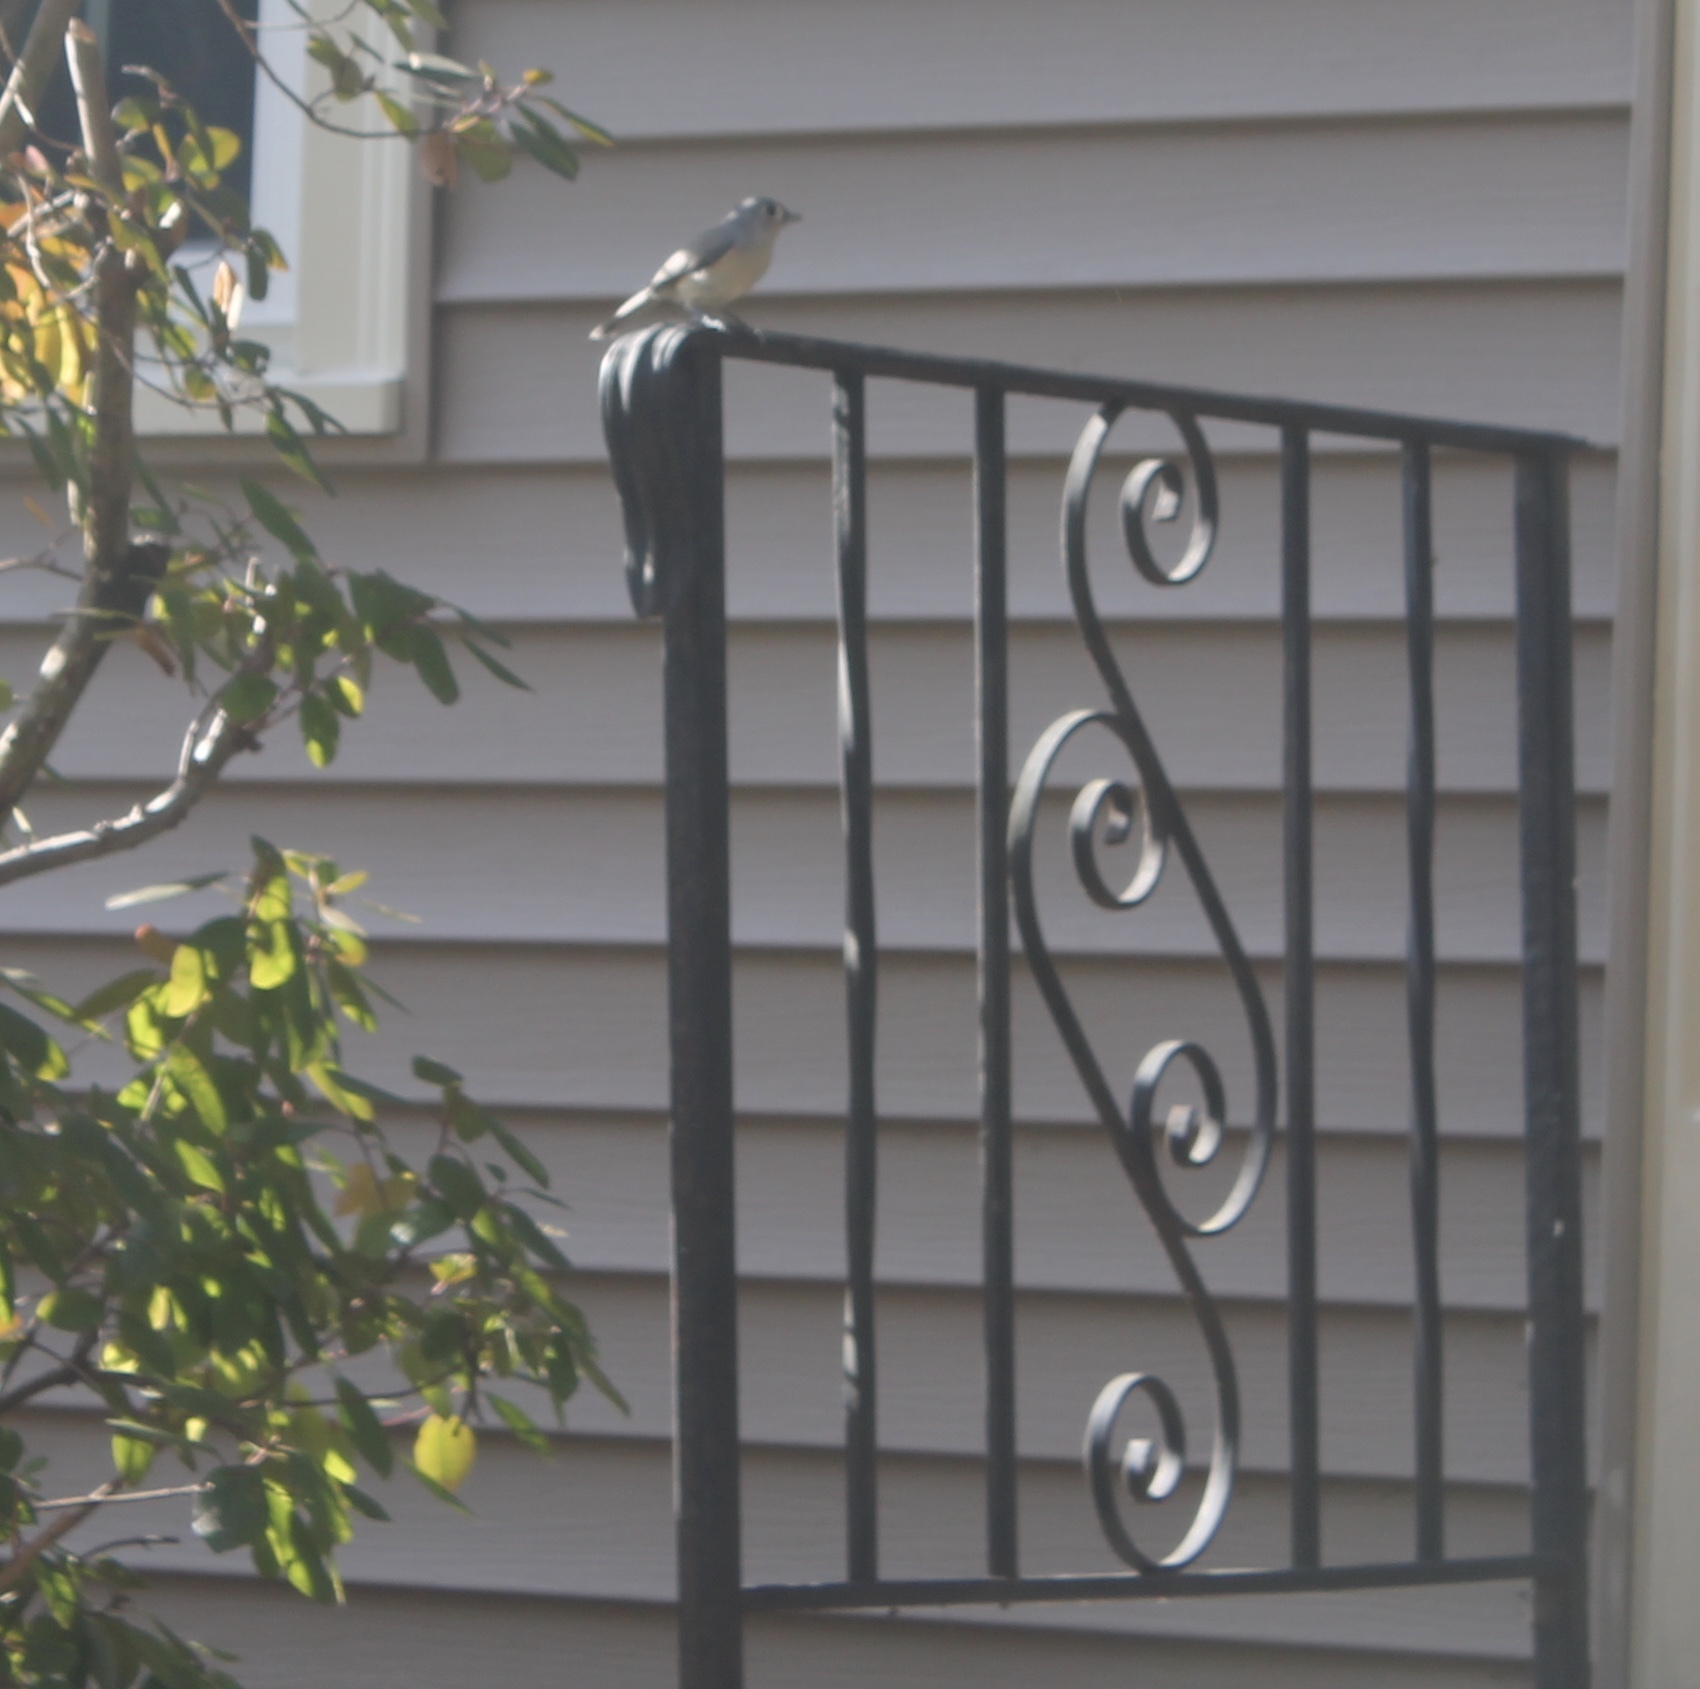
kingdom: Animalia
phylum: Chordata
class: Aves
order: Passeriformes
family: Paridae
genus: Baeolophus
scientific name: Baeolophus bicolor
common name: Tufted titmouse
